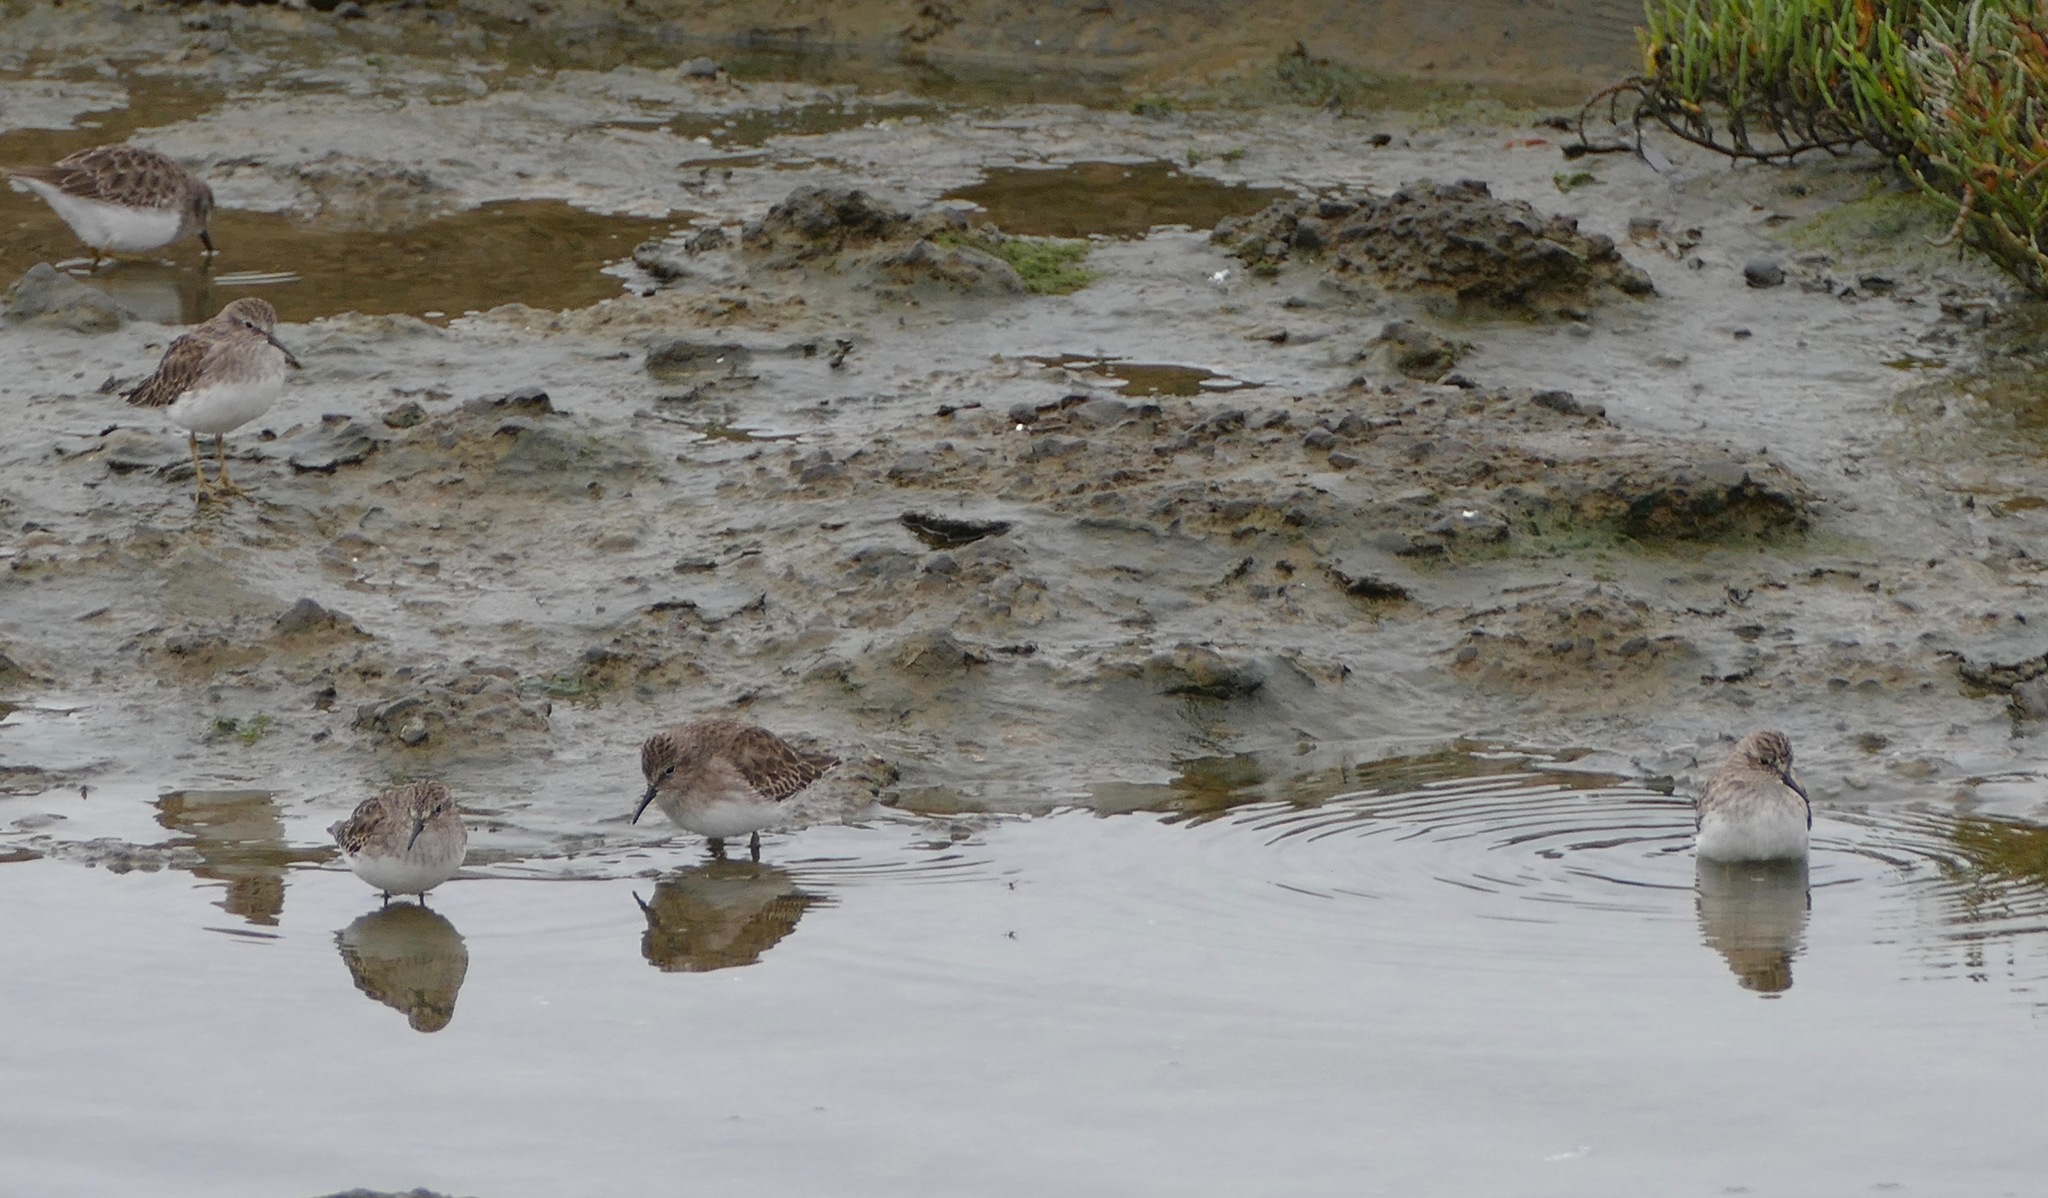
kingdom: Animalia
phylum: Chordata
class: Aves
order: Charadriiformes
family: Scolopacidae
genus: Calidris
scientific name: Calidris minutilla
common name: Least sandpiper
